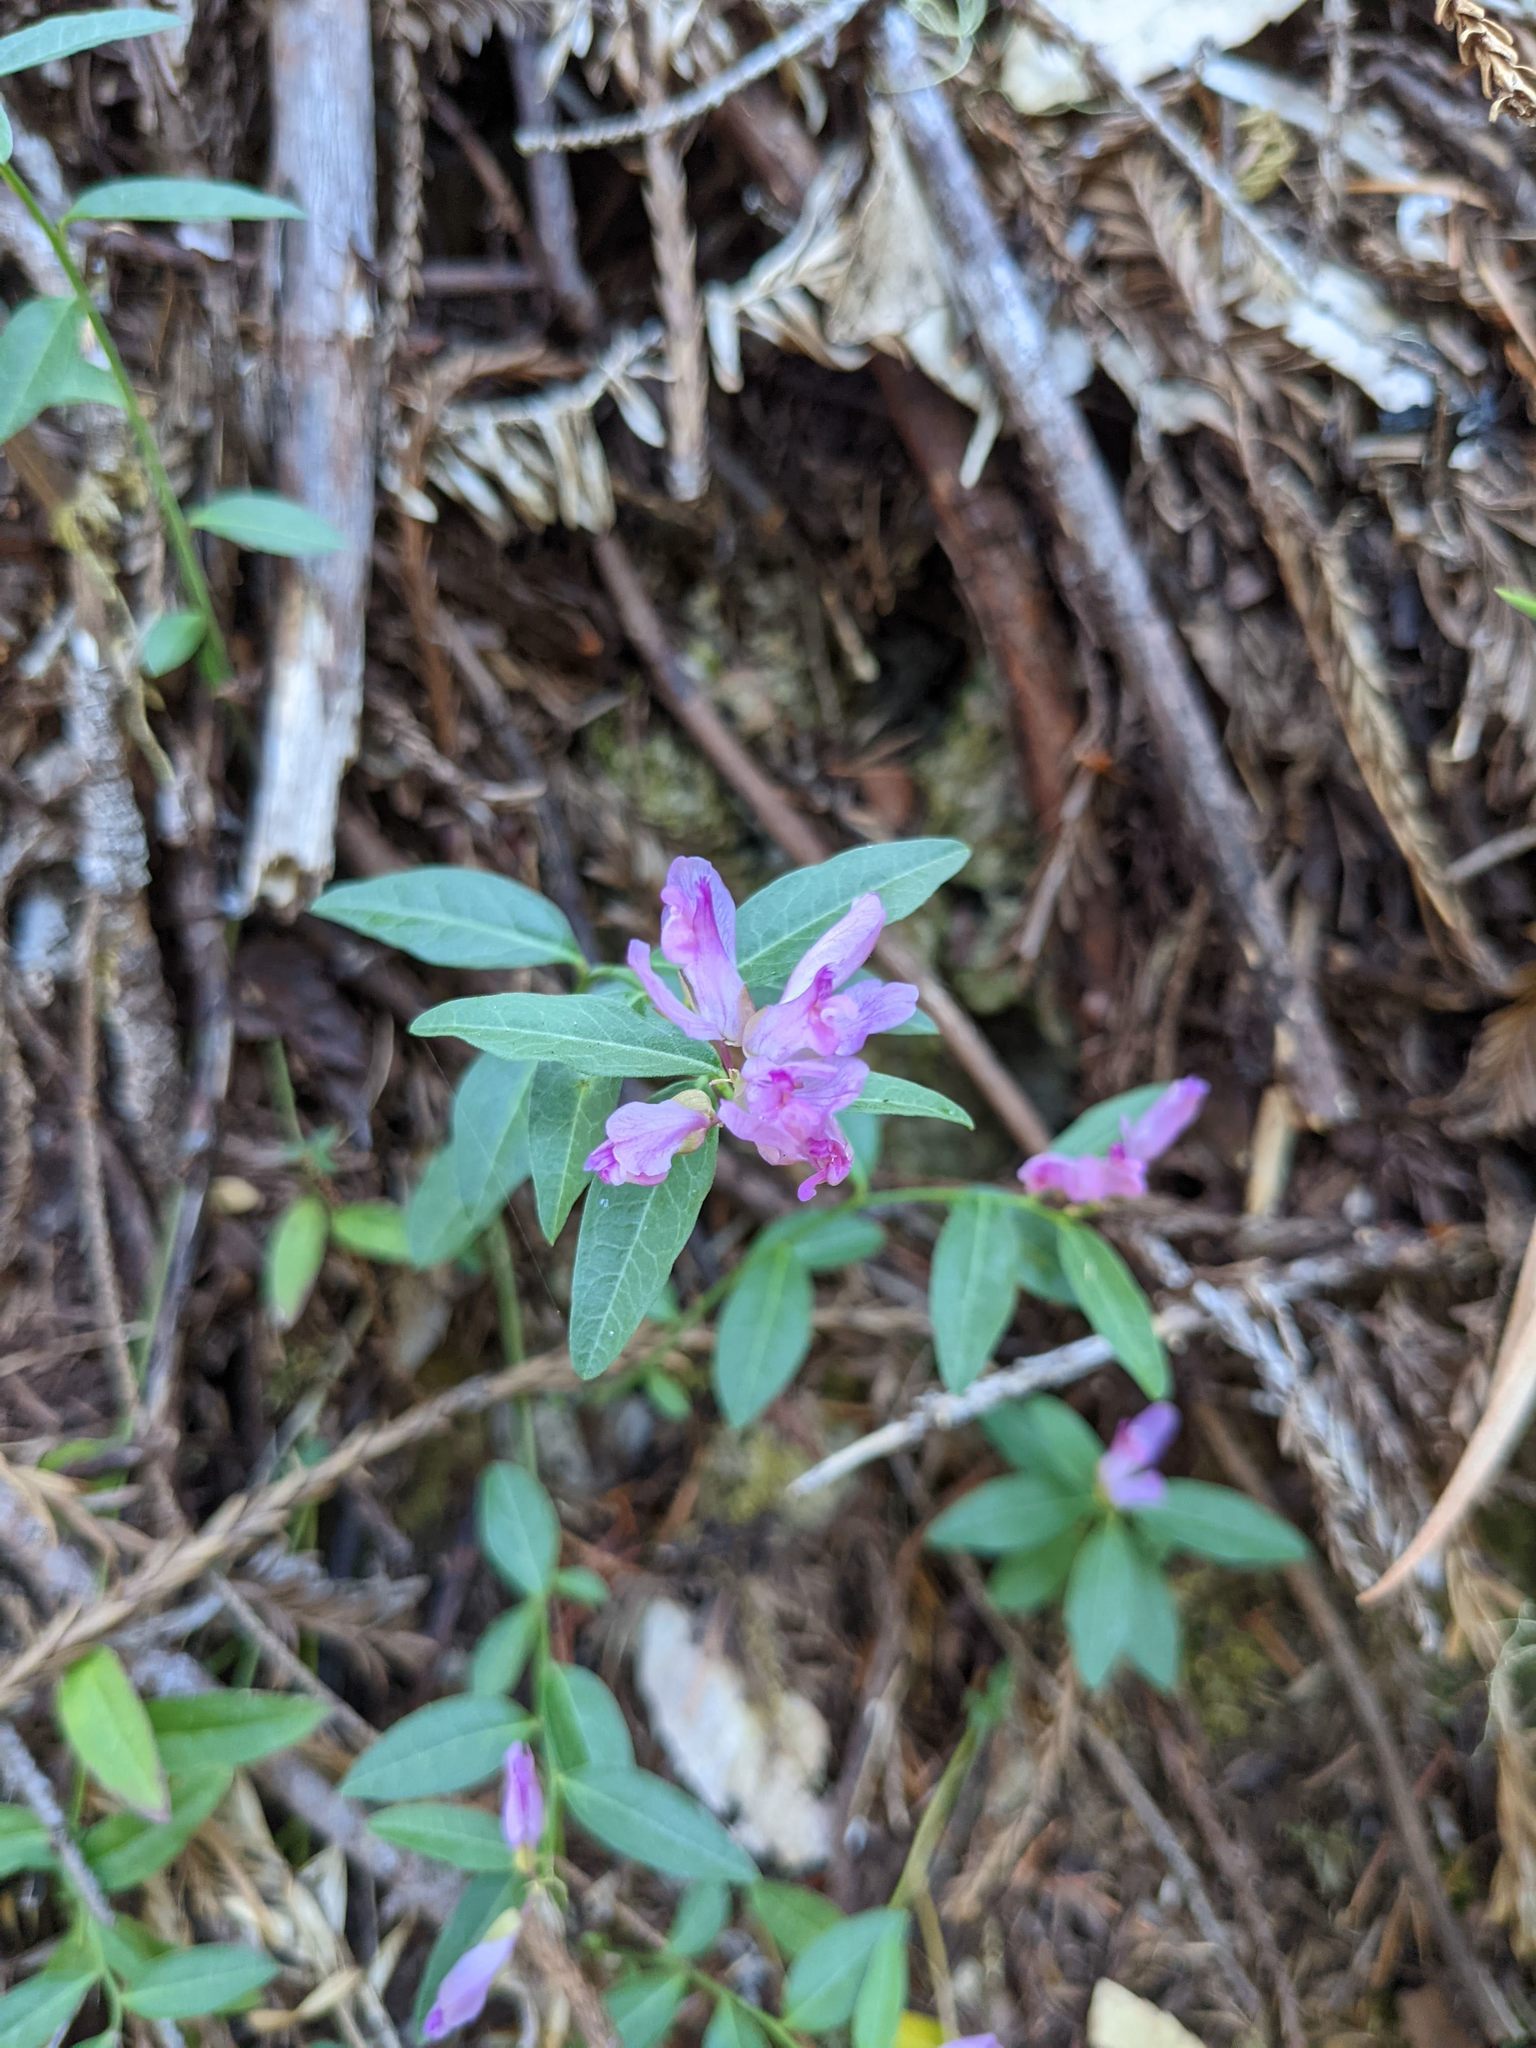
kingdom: Plantae
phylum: Tracheophyta
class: Magnoliopsida
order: Fabales
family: Polygalaceae
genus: Rhinotropis
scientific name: Rhinotropis californica
